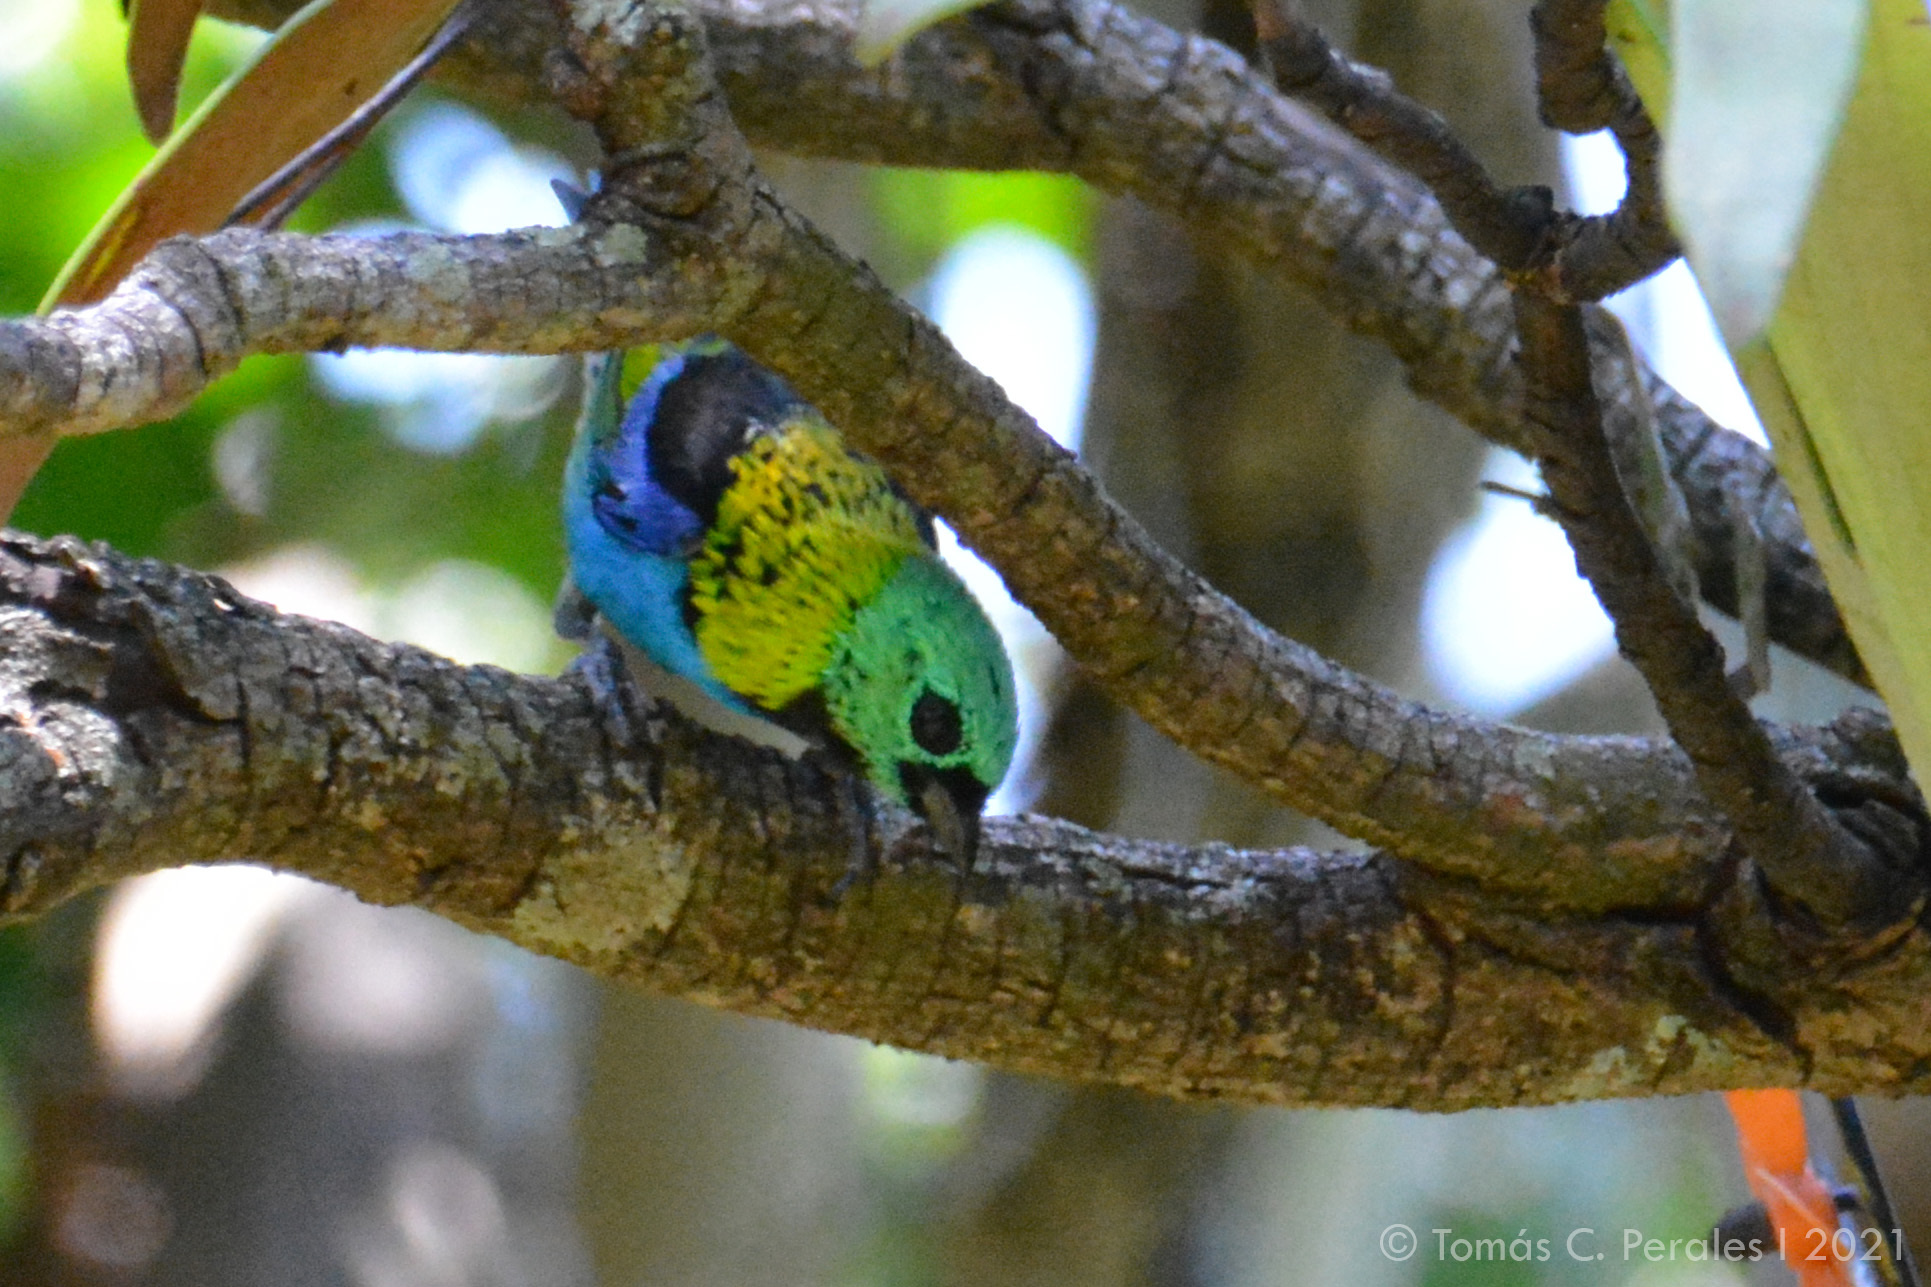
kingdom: Animalia
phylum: Chordata
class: Aves
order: Passeriformes
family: Thraupidae
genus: Tangara
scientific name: Tangara seledon
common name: Green-headed tanager
